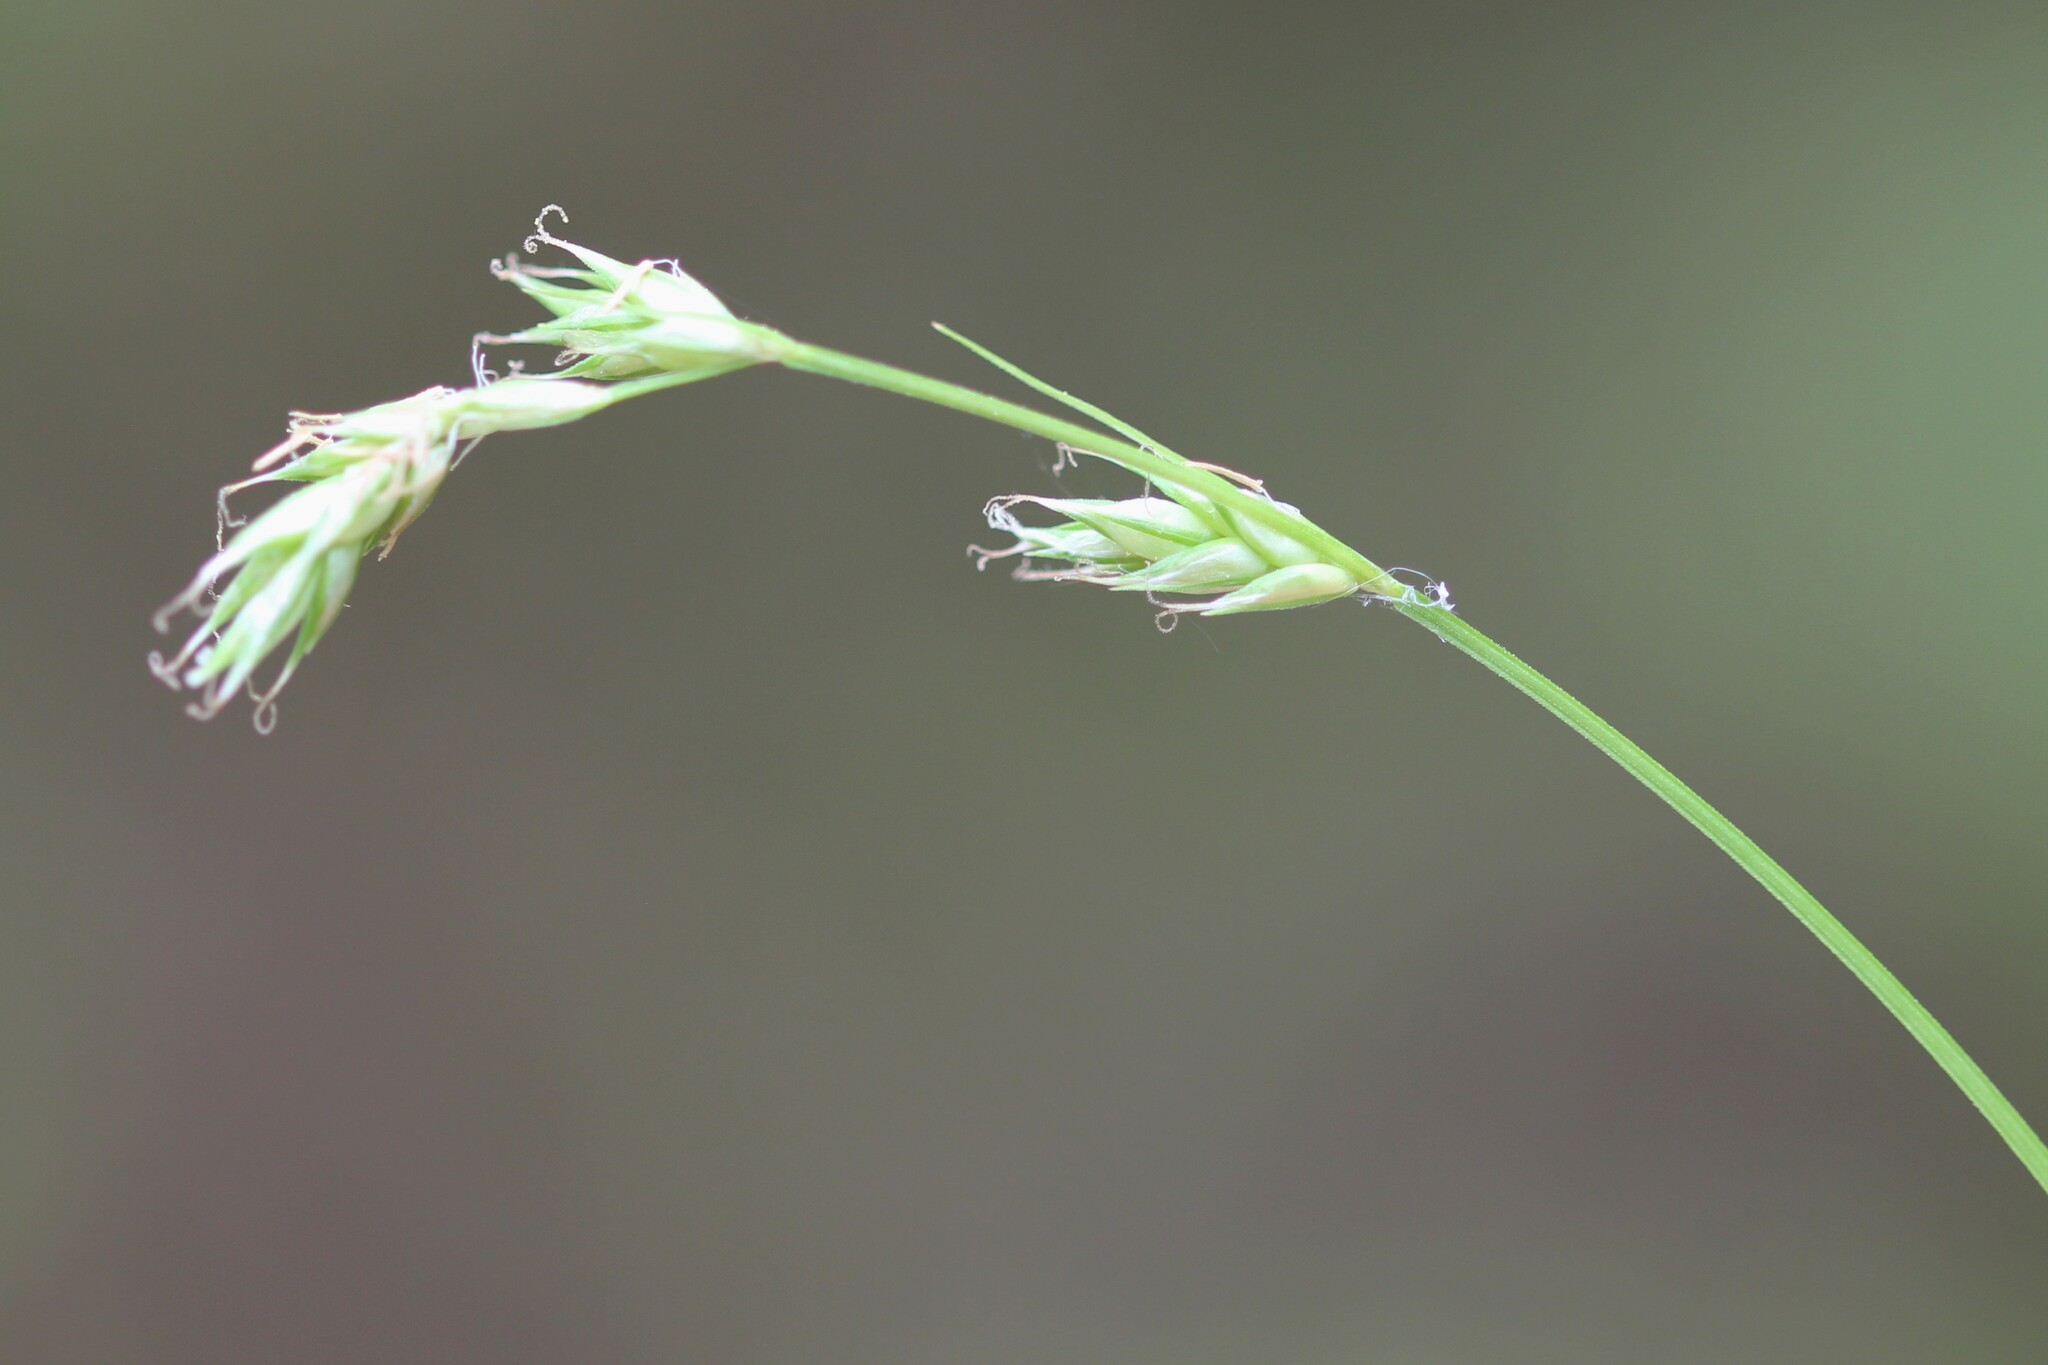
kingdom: Plantae
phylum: Tracheophyta
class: Liliopsida
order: Poales
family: Cyperaceae
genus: Carex
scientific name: Carex deweyana
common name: Dewey's sedge
